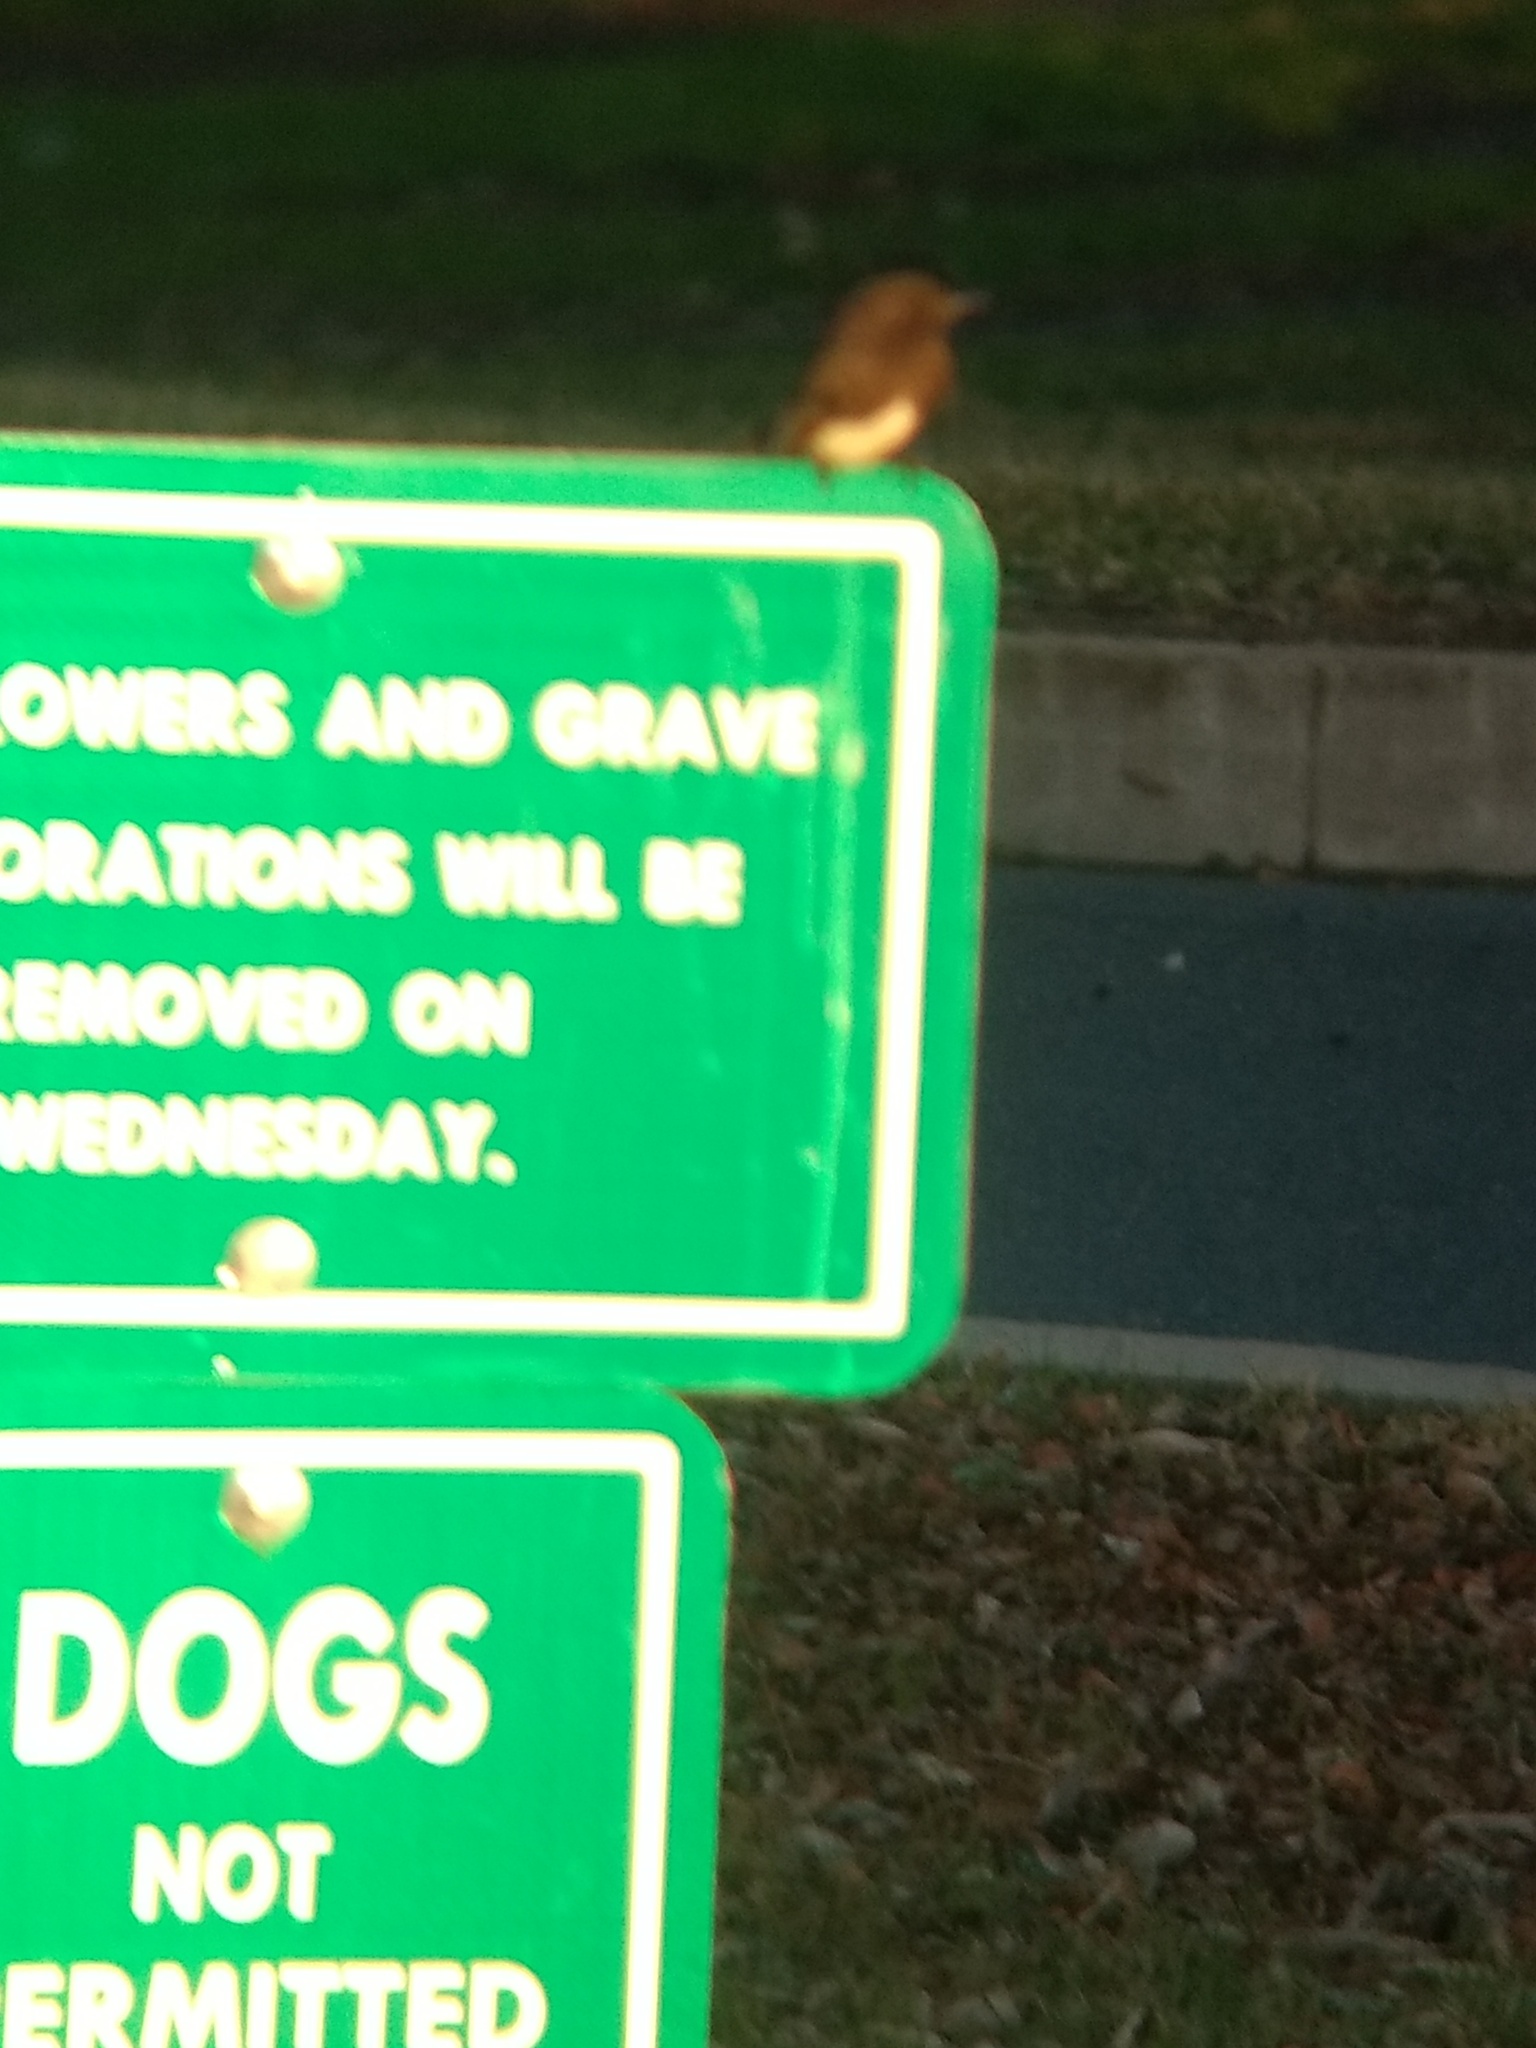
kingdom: Animalia
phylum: Chordata
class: Aves
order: Passeriformes
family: Tyrannidae
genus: Sayornis
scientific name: Sayornis nigricans
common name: Black phoebe
